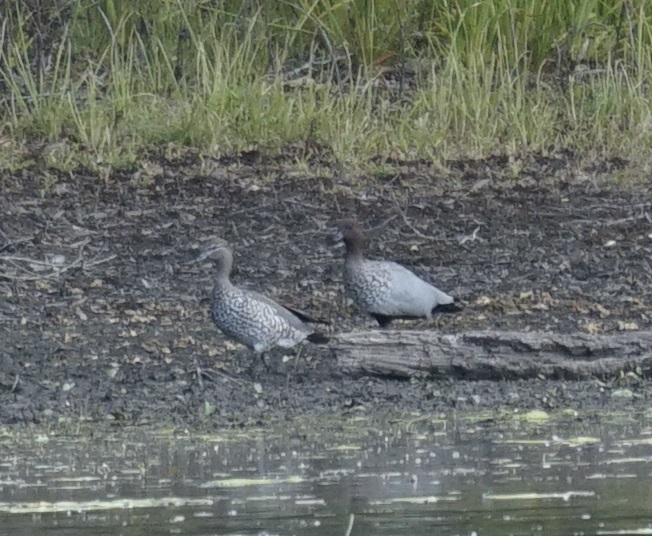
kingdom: Animalia
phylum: Chordata
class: Aves
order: Anseriformes
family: Anatidae
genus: Chenonetta
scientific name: Chenonetta jubata
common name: Maned duck
